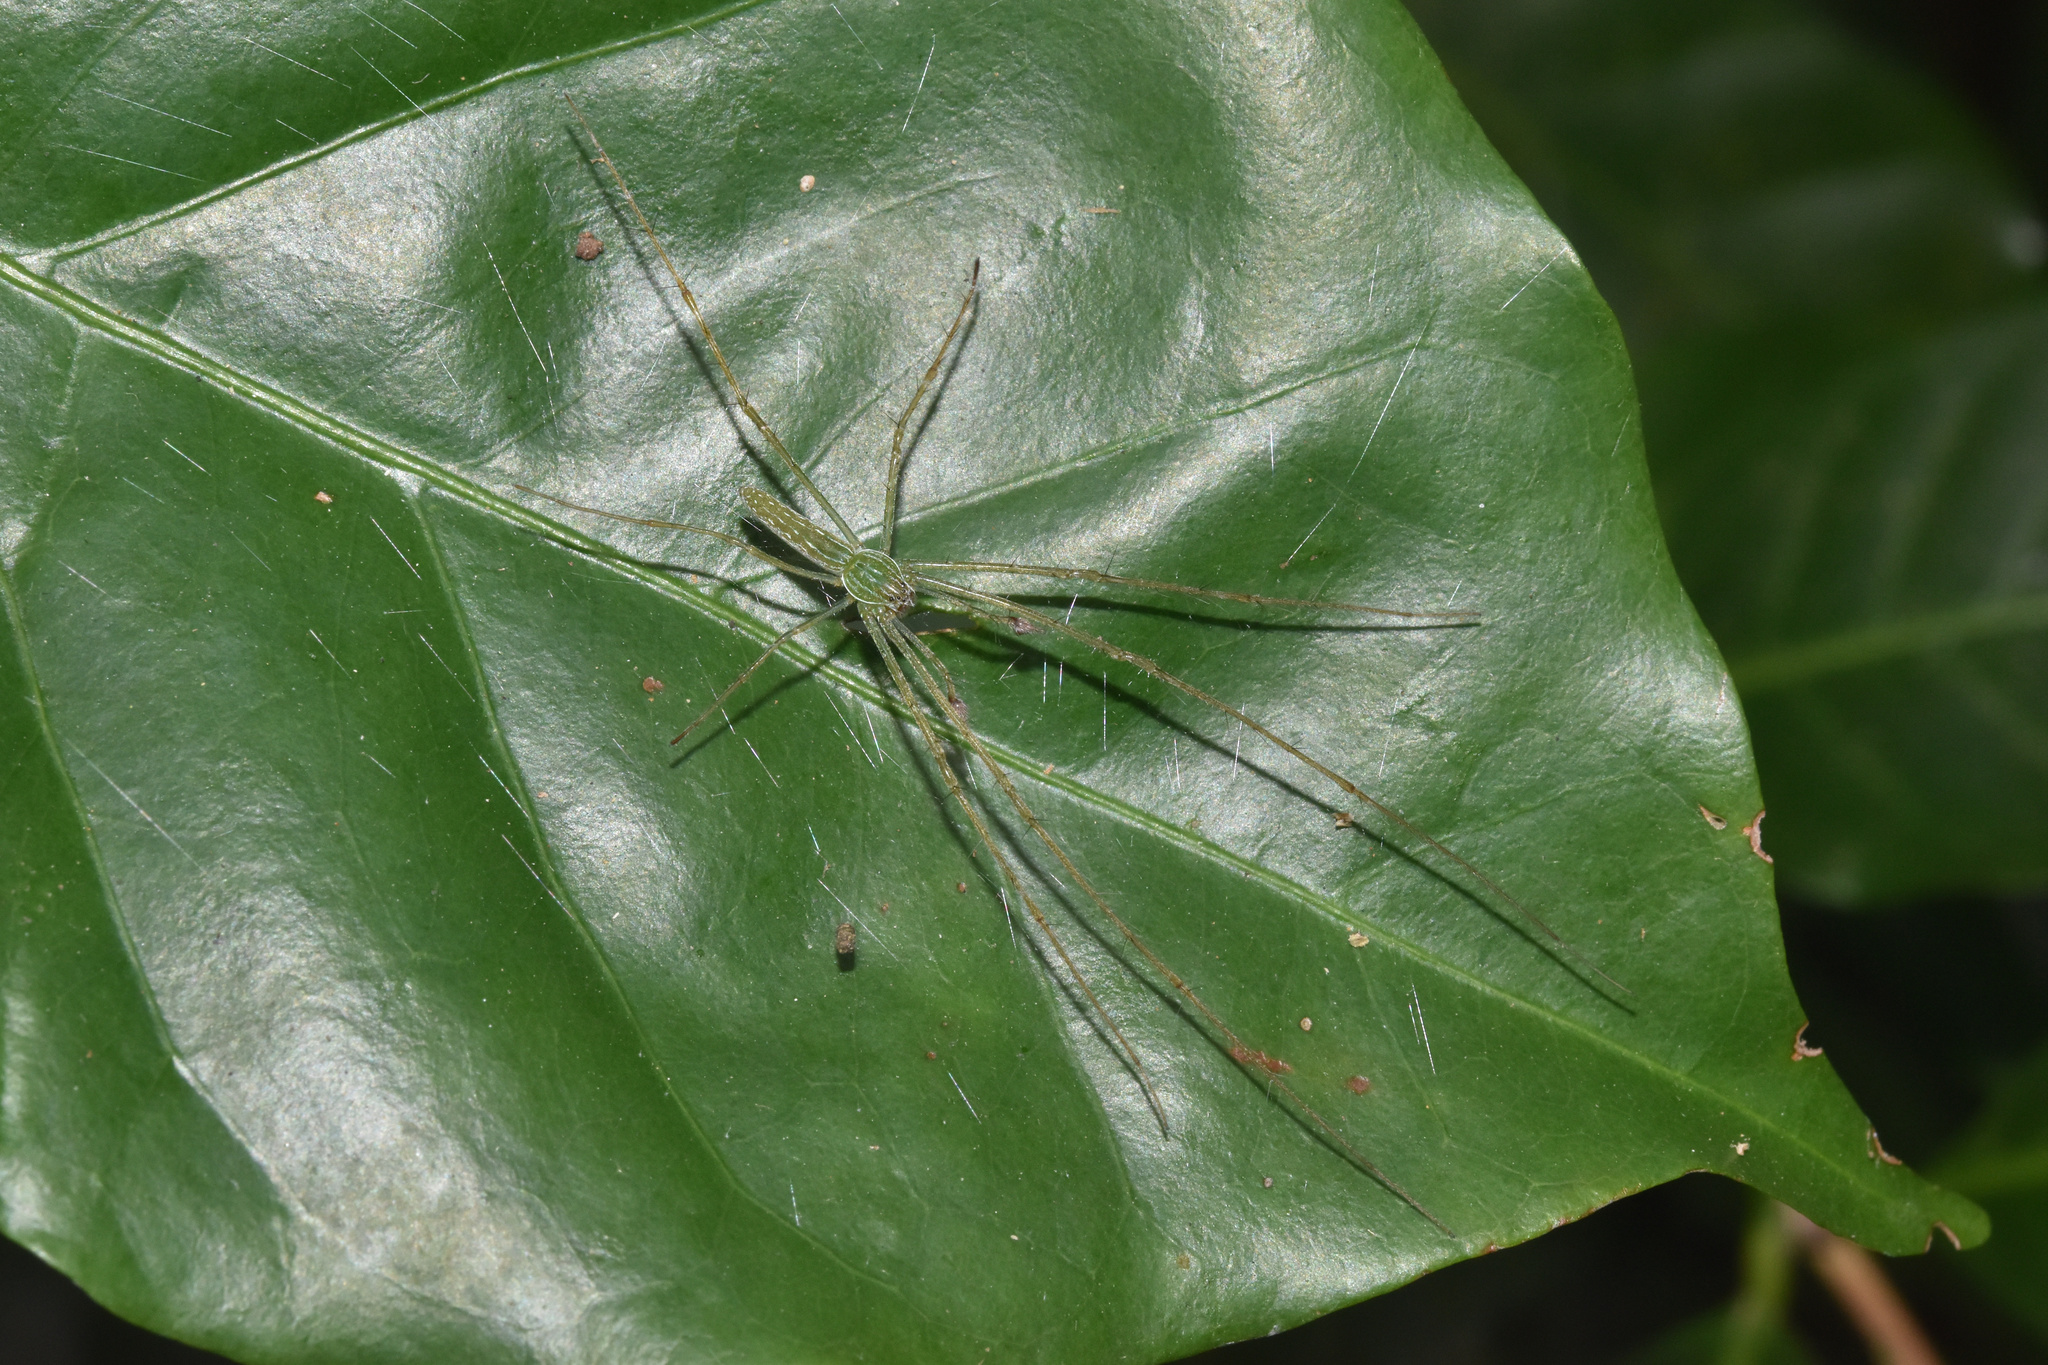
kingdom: Animalia
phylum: Arthropoda
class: Arachnida
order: Araneae
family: Pisauridae
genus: Hygropoda
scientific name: Hygropoda tangana
